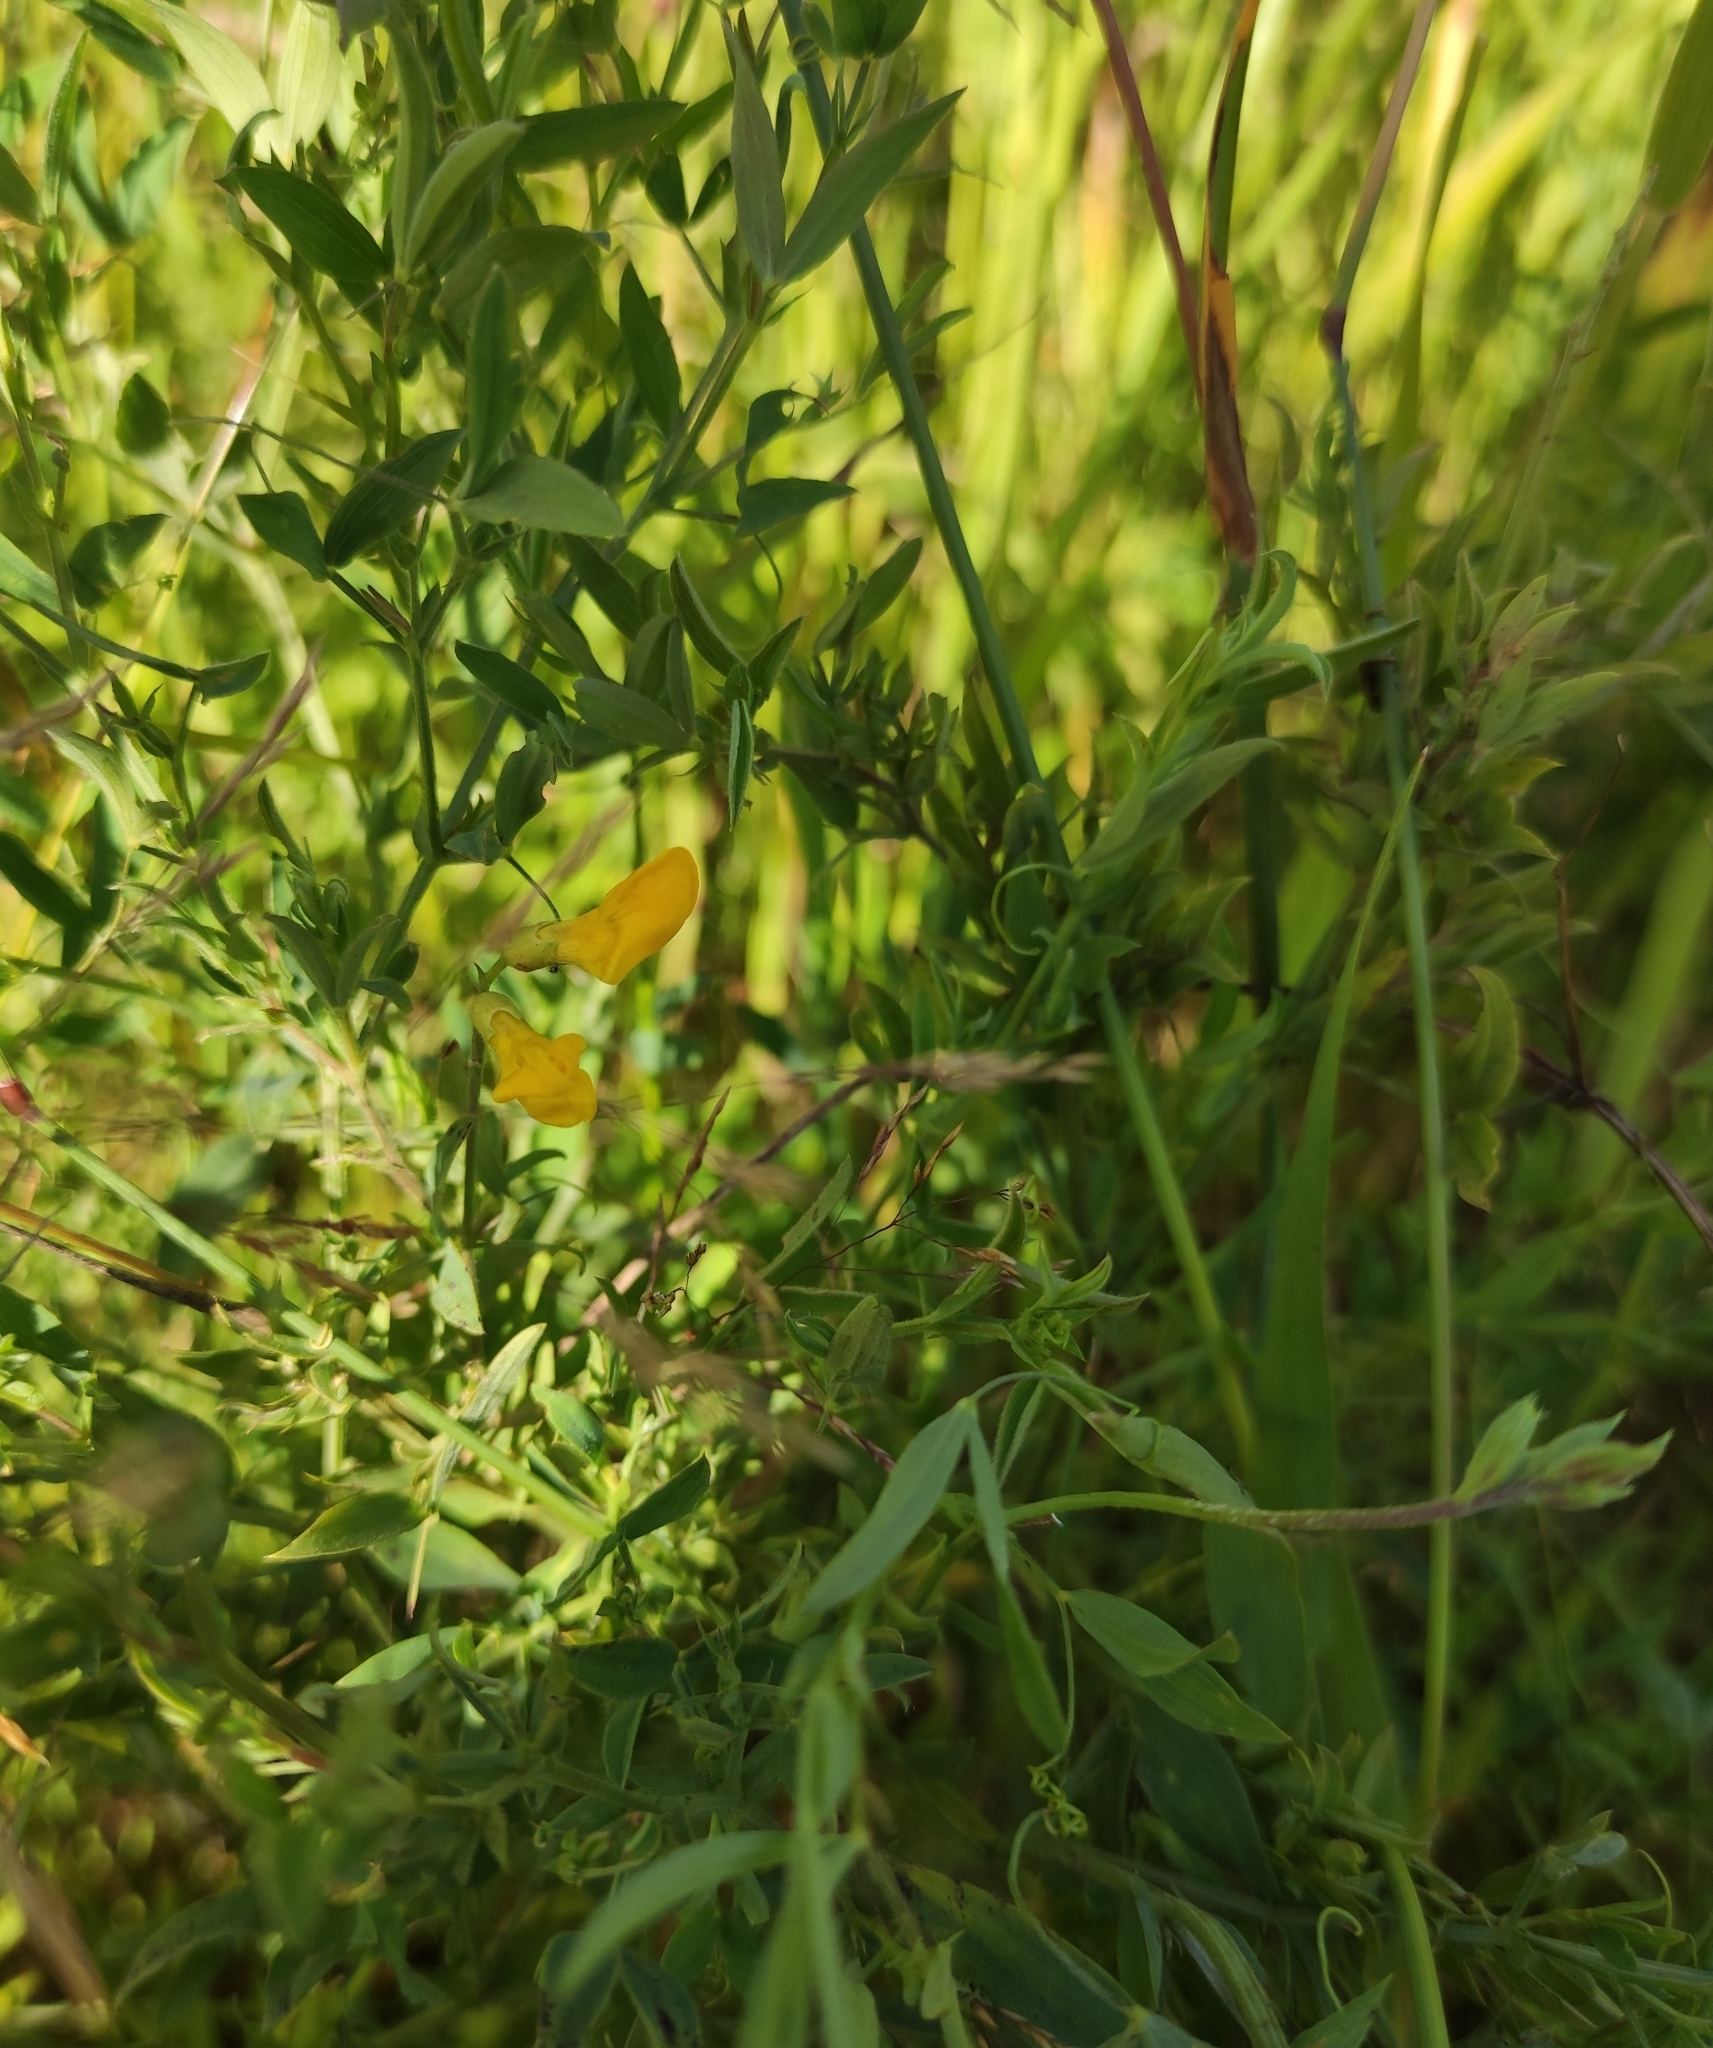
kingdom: Plantae
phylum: Tracheophyta
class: Magnoliopsida
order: Fabales
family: Fabaceae
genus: Lathyrus
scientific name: Lathyrus pratensis
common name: Meadow vetchling
